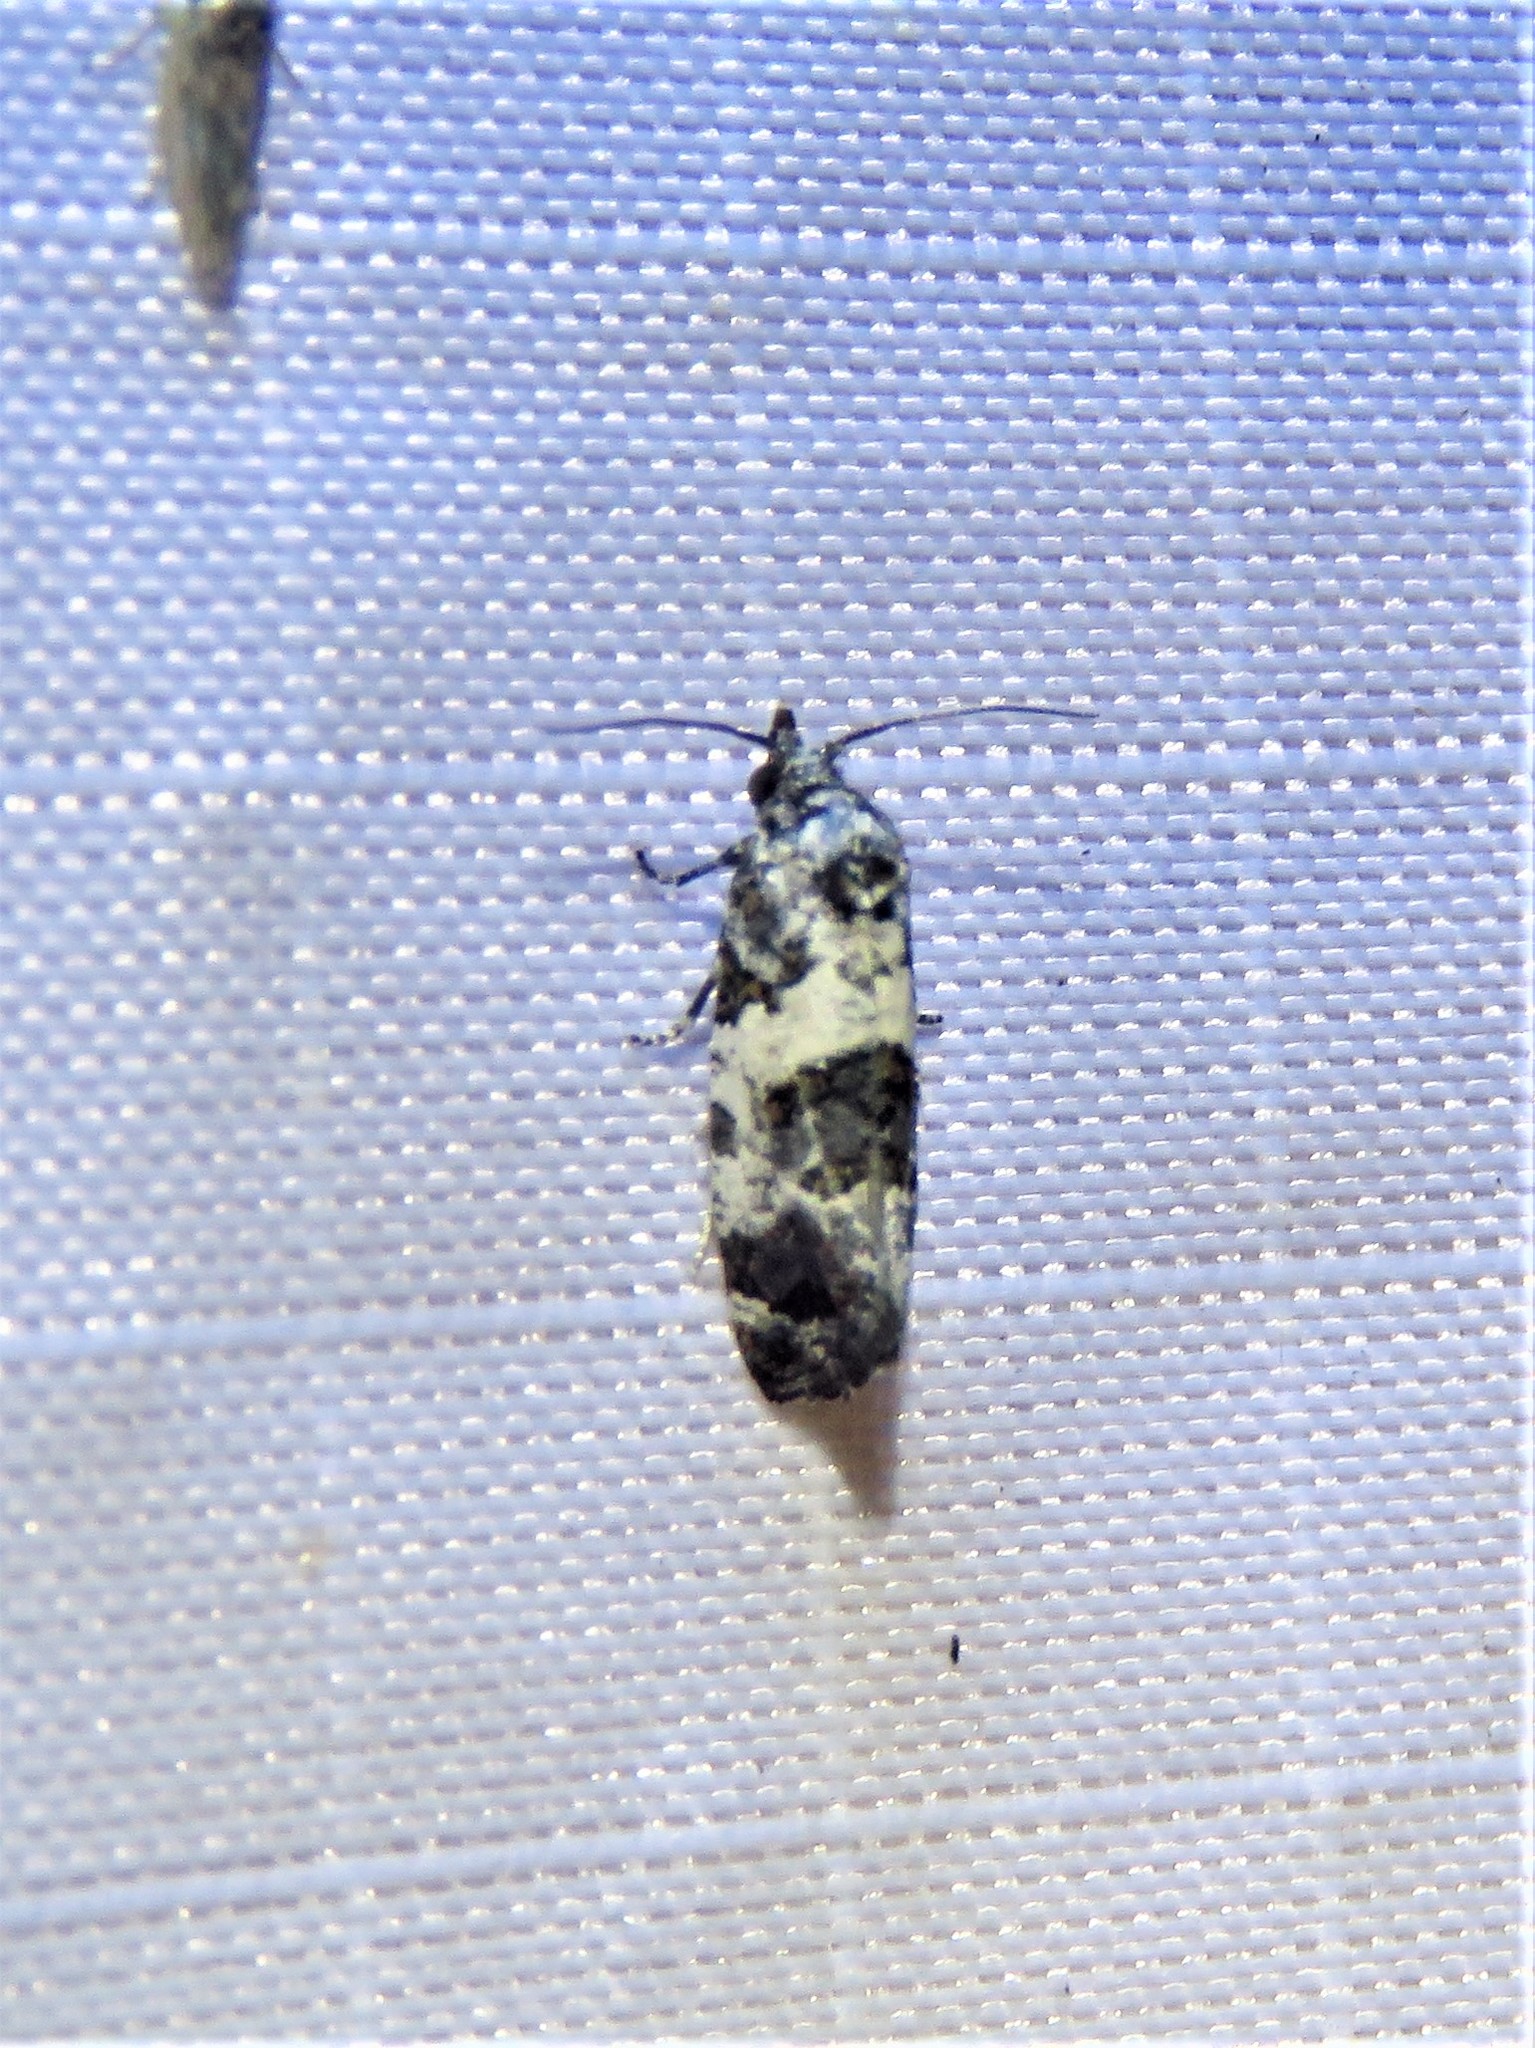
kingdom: Animalia
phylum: Arthropoda
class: Insecta
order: Lepidoptera
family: Tortricidae
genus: Rudenia
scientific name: Rudenia leguminana
